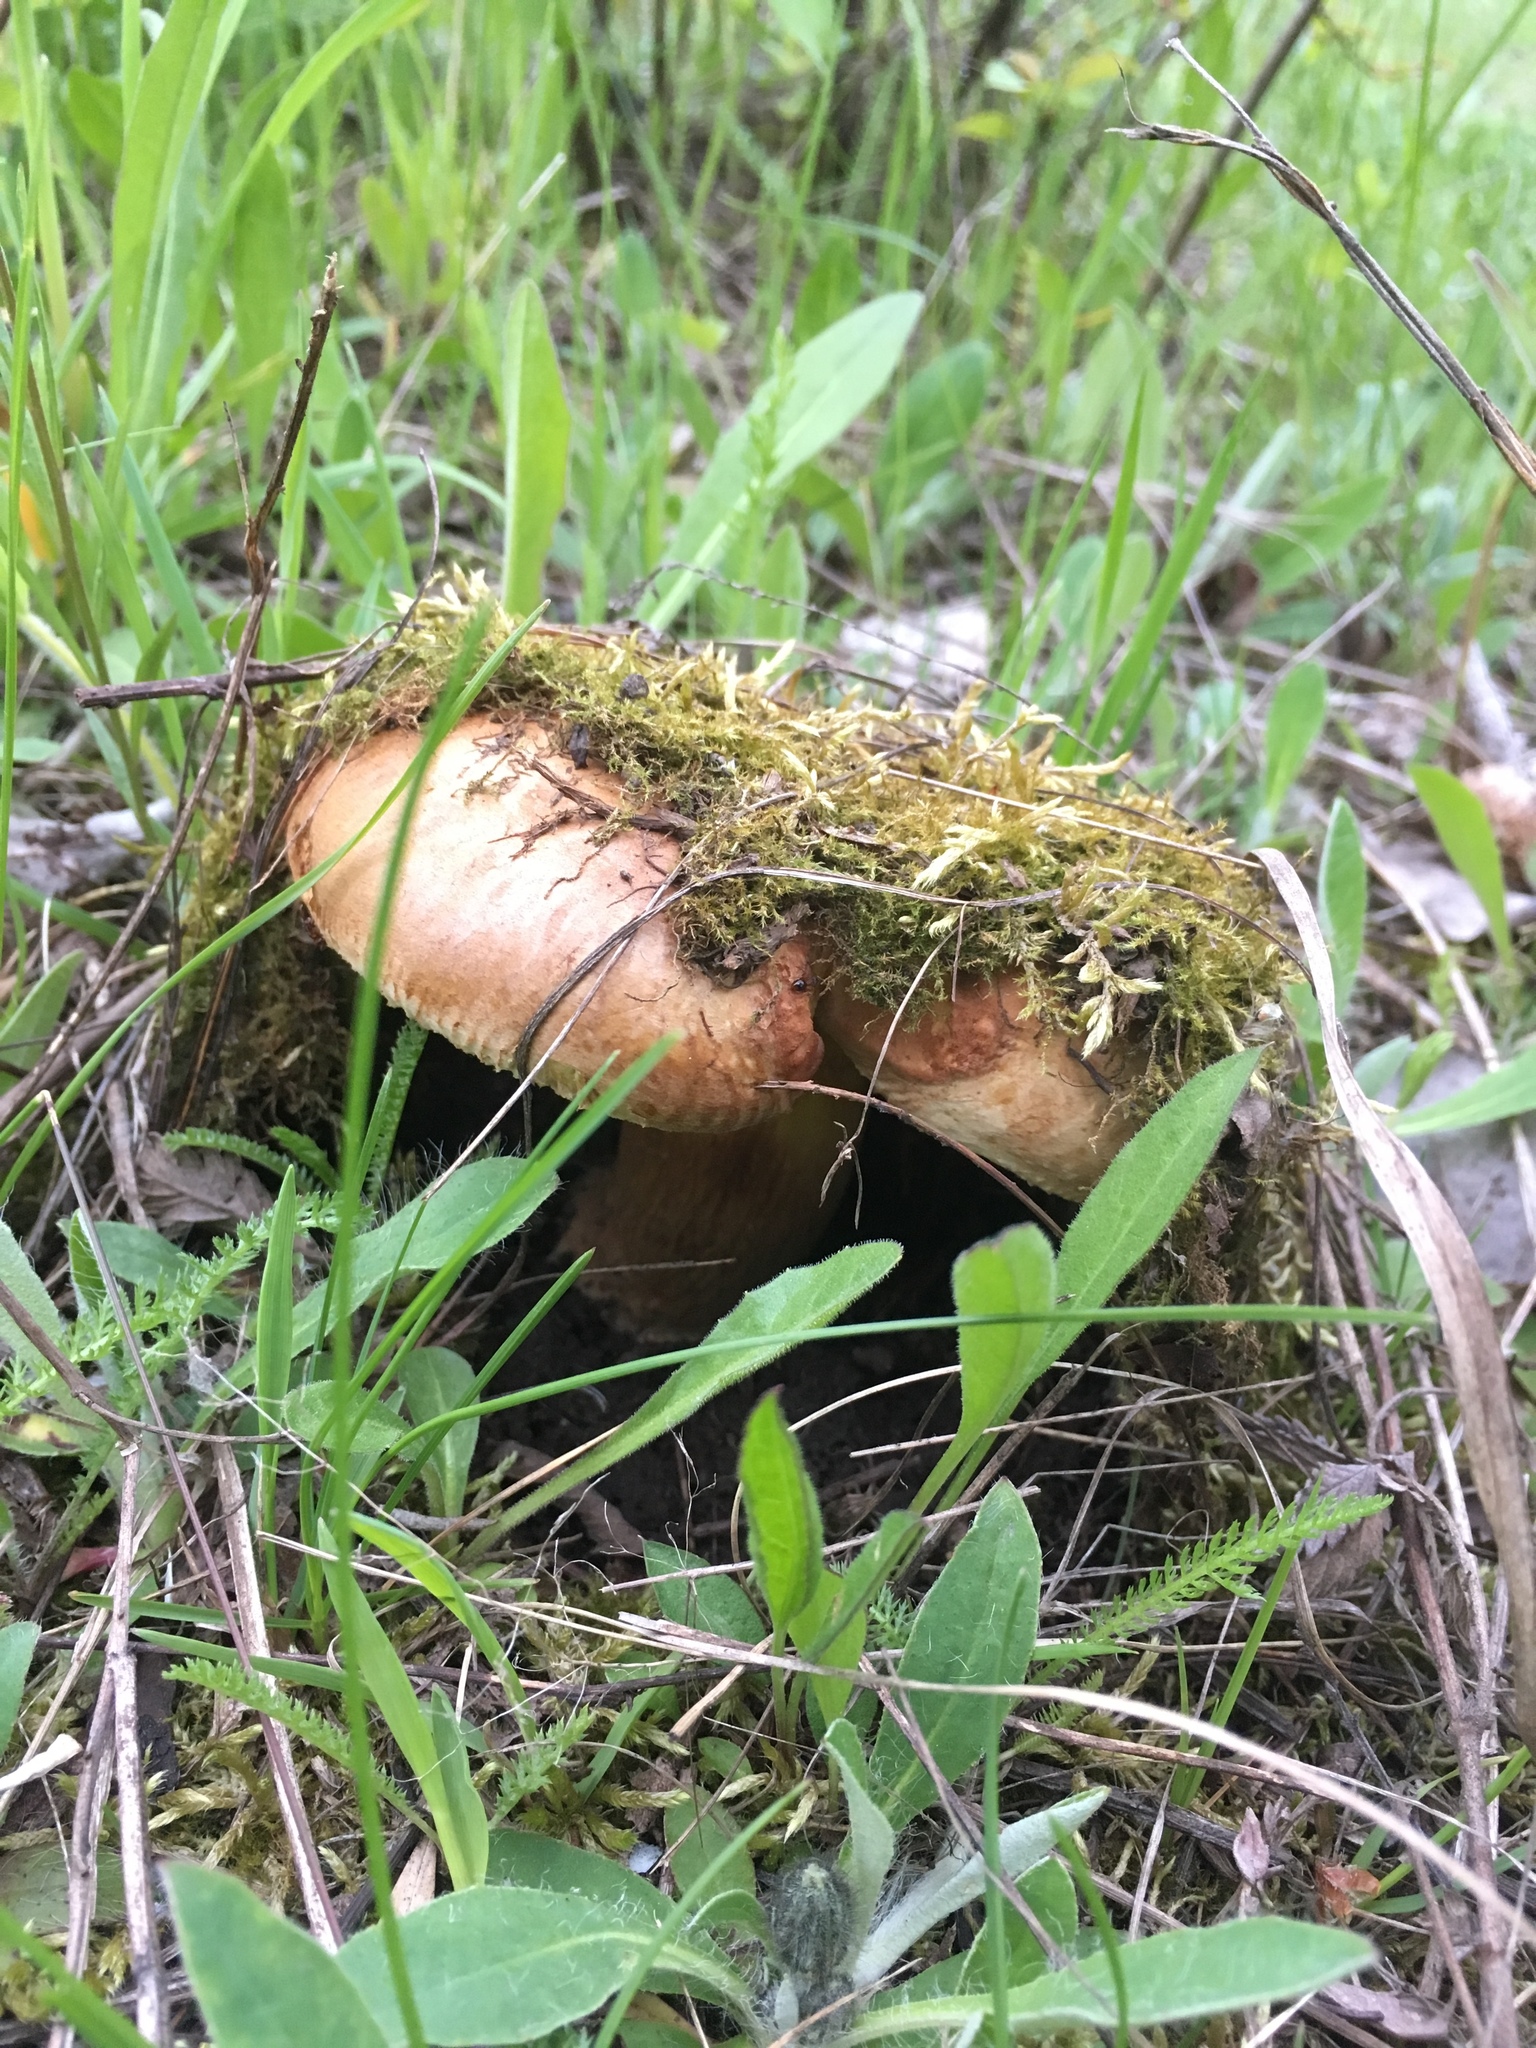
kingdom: Fungi
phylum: Basidiomycota
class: Agaricomycetes
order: Boletales
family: Paxillaceae
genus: Paxillus
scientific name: Paxillus involutus
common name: Brown roll rim
